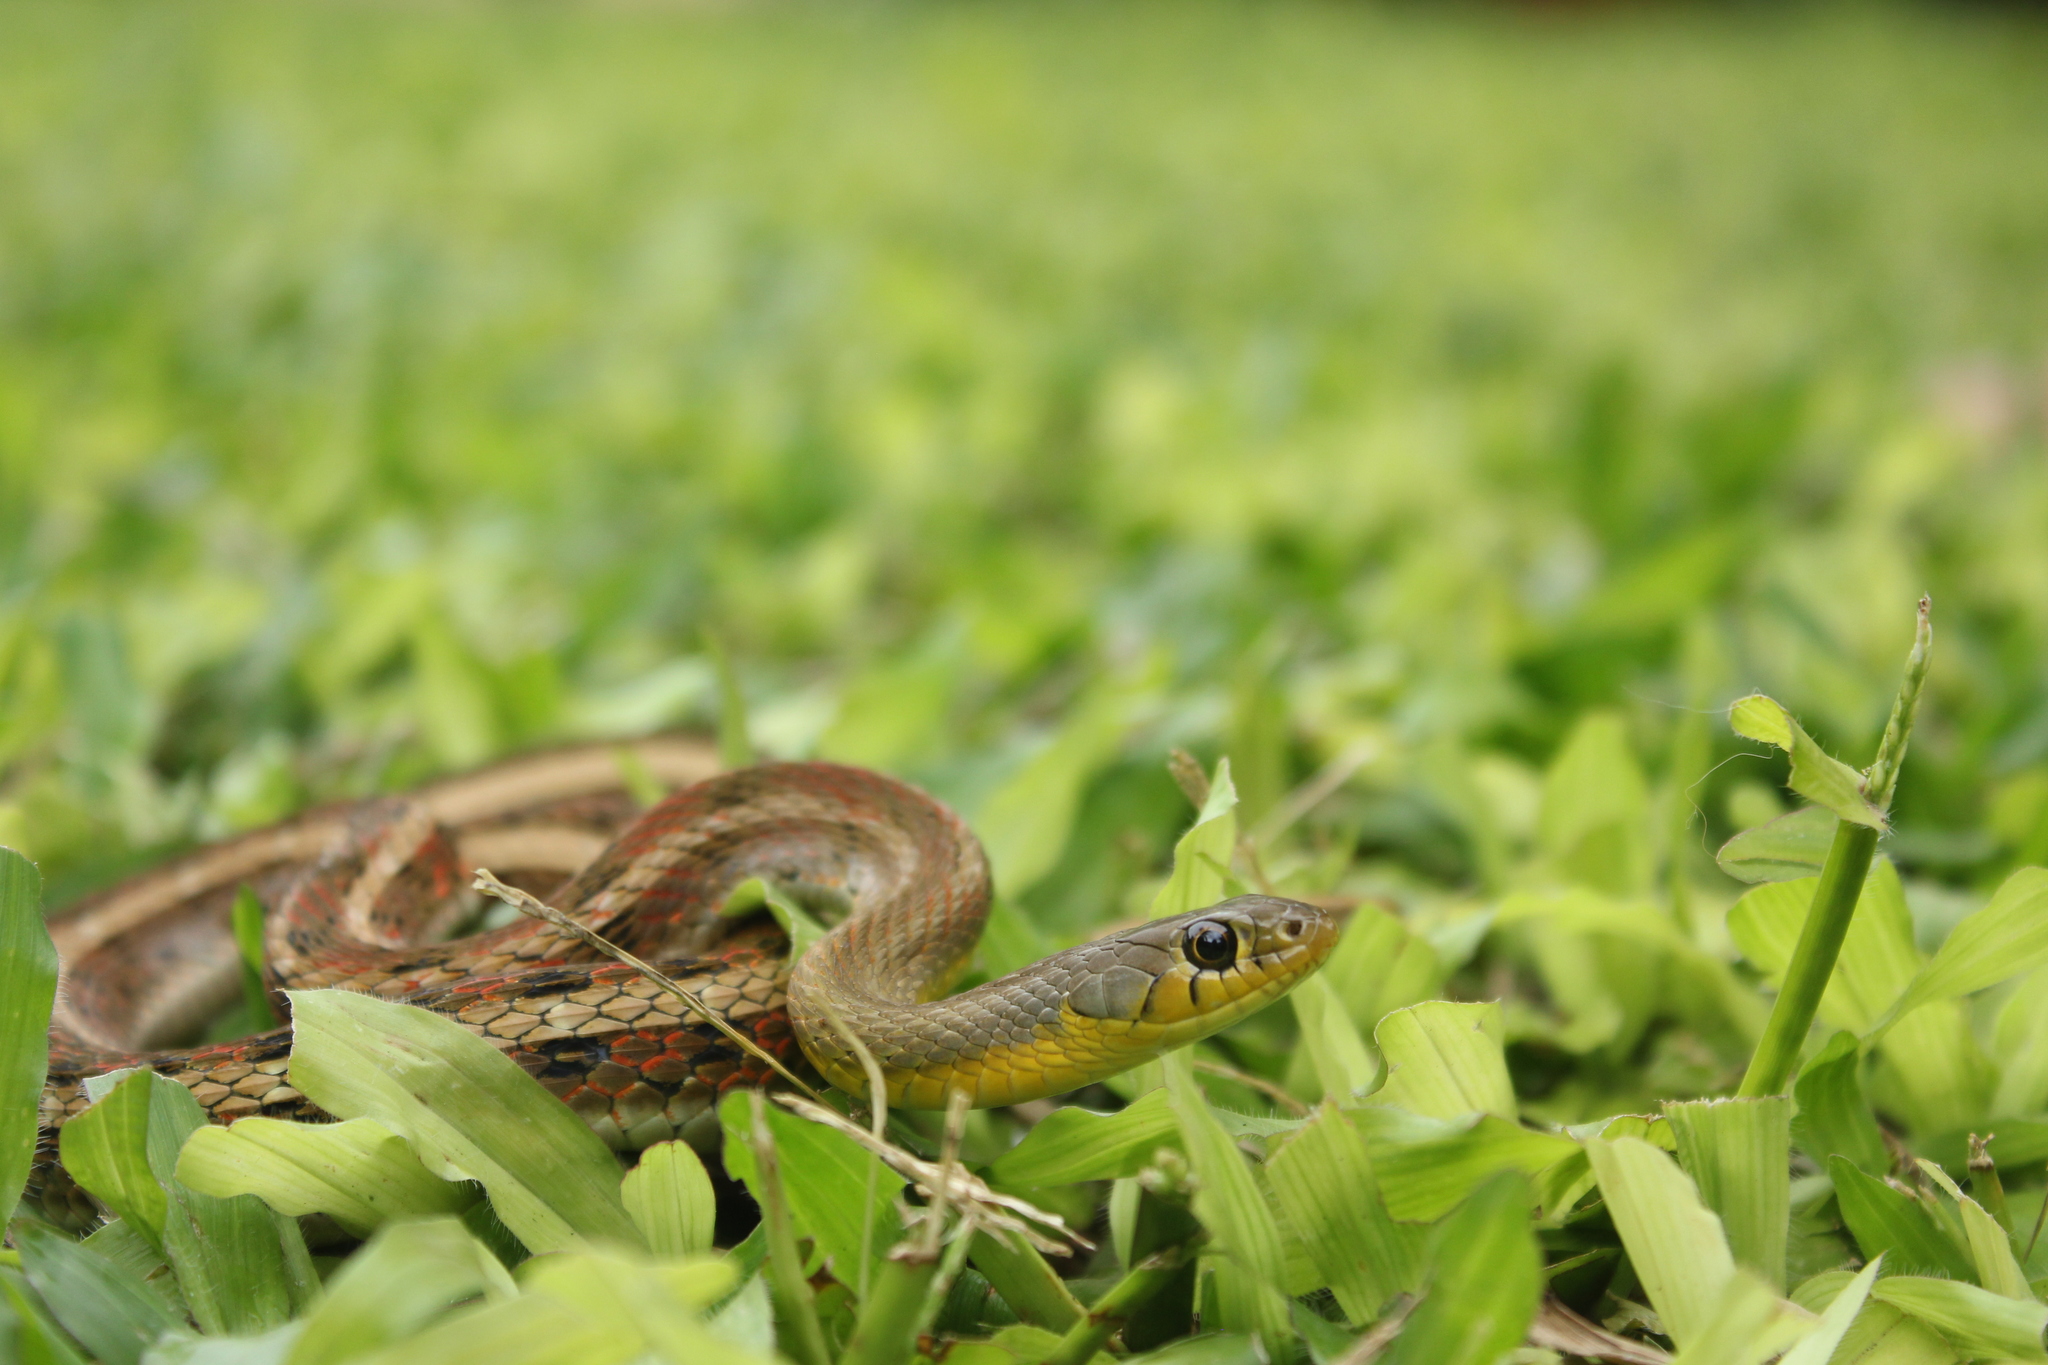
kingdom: Animalia
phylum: Chordata
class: Squamata
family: Colubridae
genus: Amphiesma
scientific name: Amphiesma stolatum
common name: Buff striped keelback
